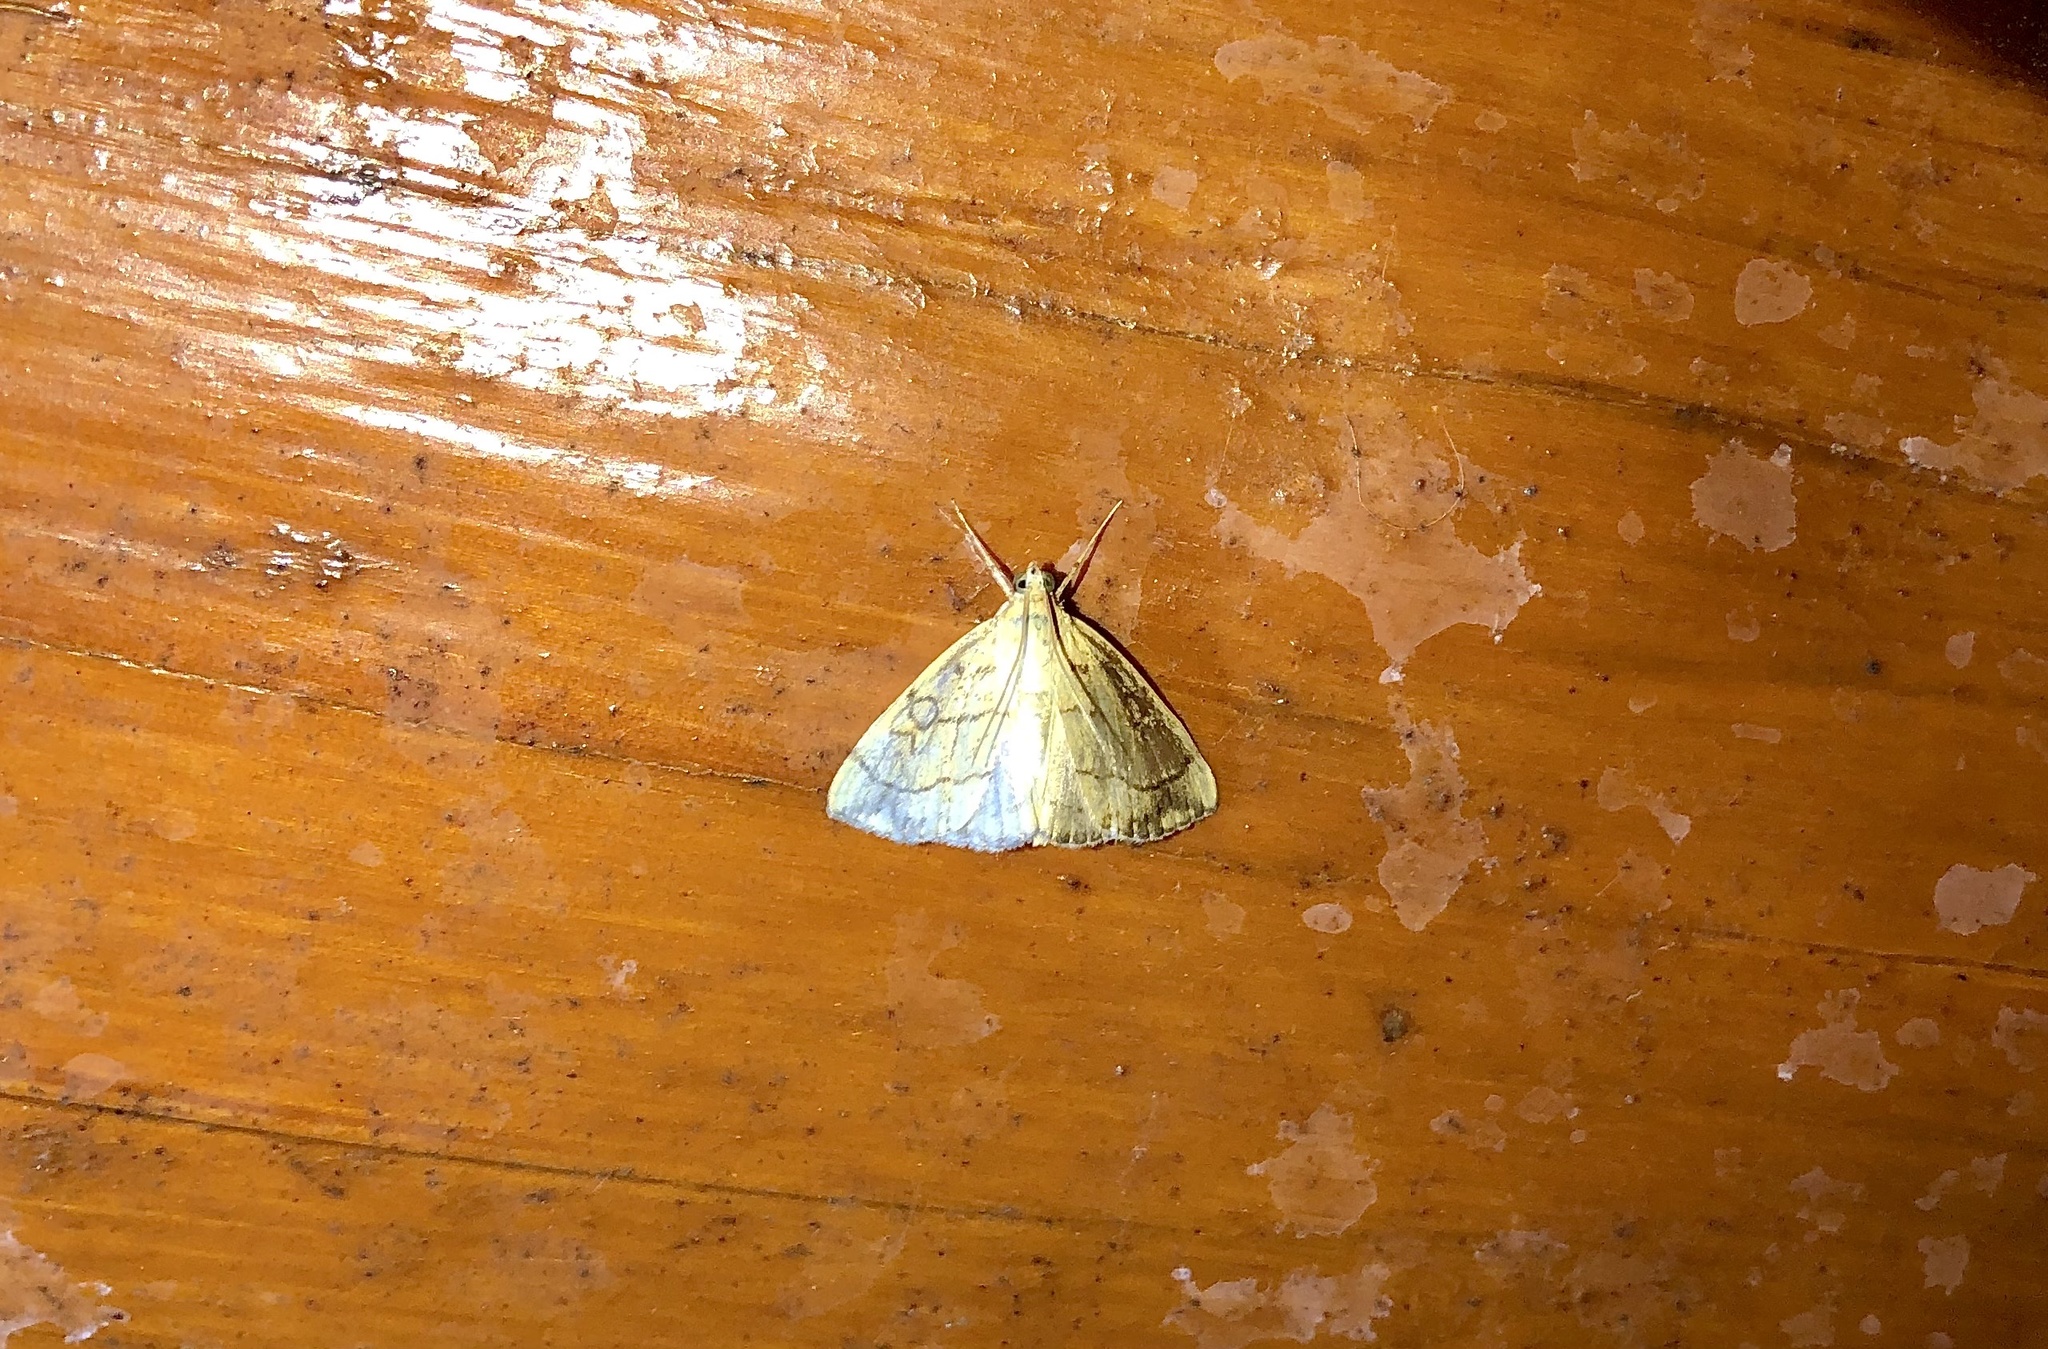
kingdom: Animalia
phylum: Arthropoda
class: Insecta
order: Lepidoptera
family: Crambidae
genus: Evergestis
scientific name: Evergestis pallidata
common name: Chequered pearl
